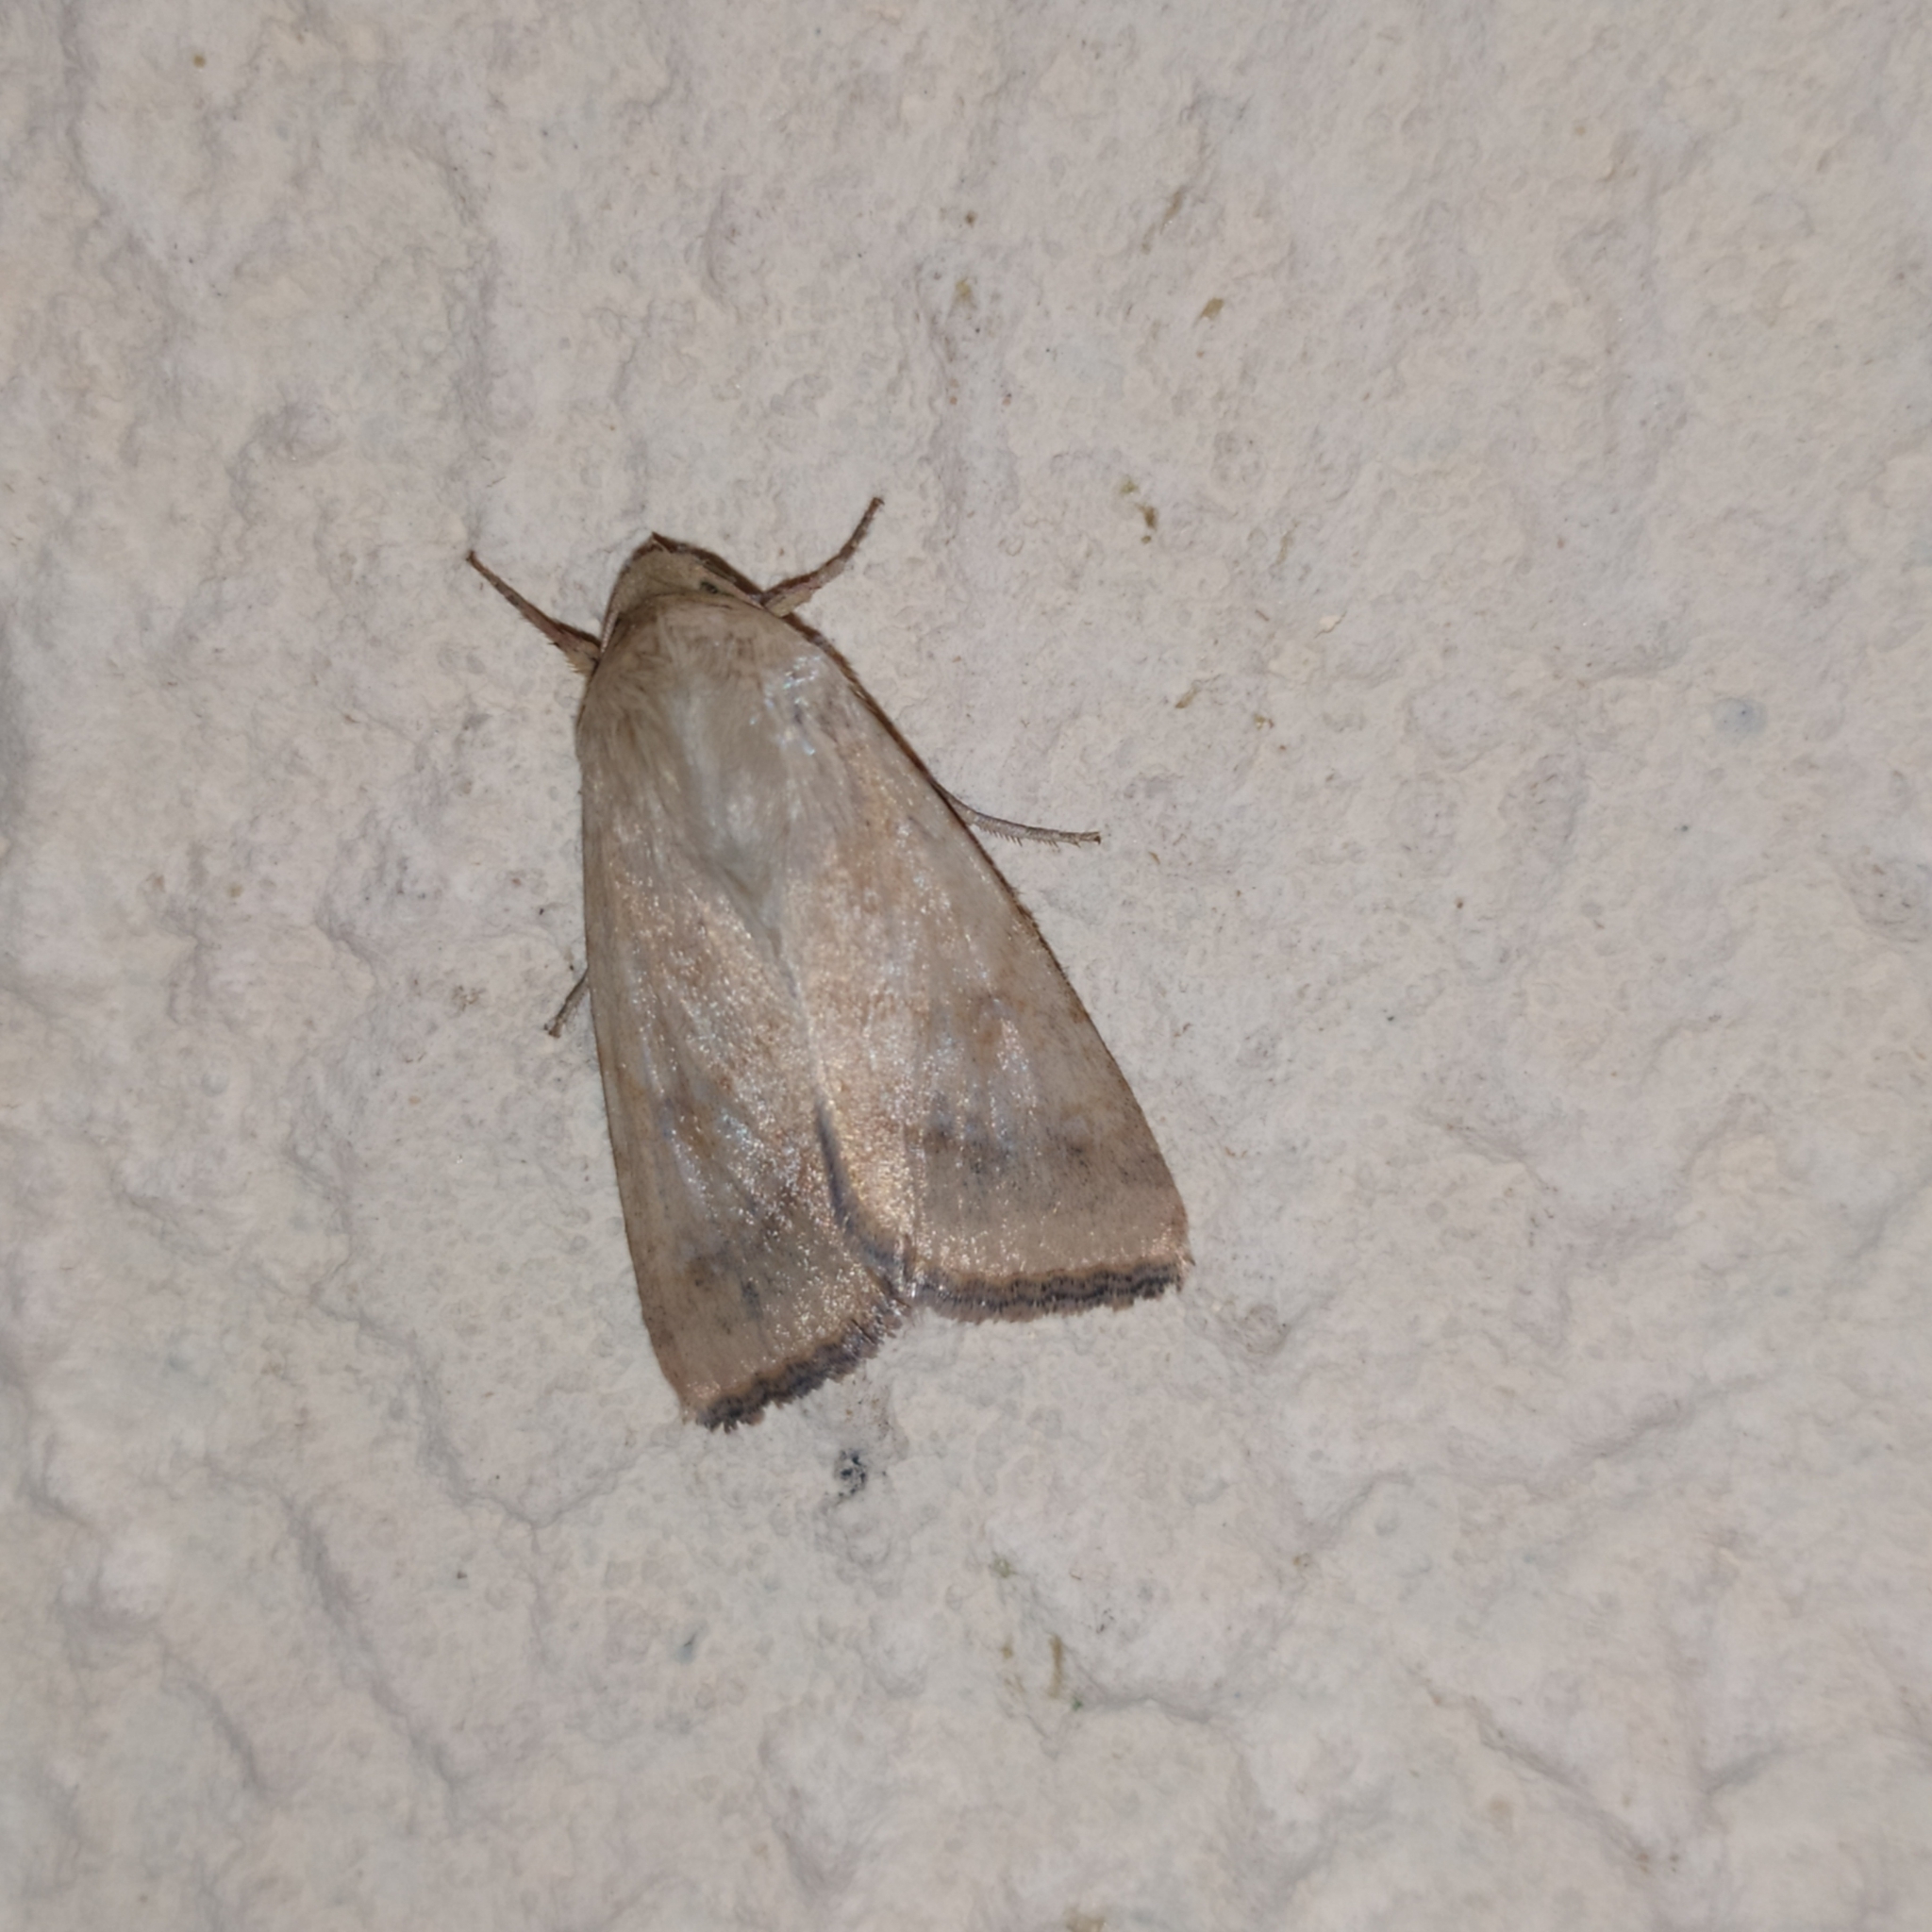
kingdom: Animalia
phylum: Arthropoda
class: Insecta
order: Lepidoptera
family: Noctuidae
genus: Helicoverpa
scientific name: Helicoverpa armigera
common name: Cotton bollworm
